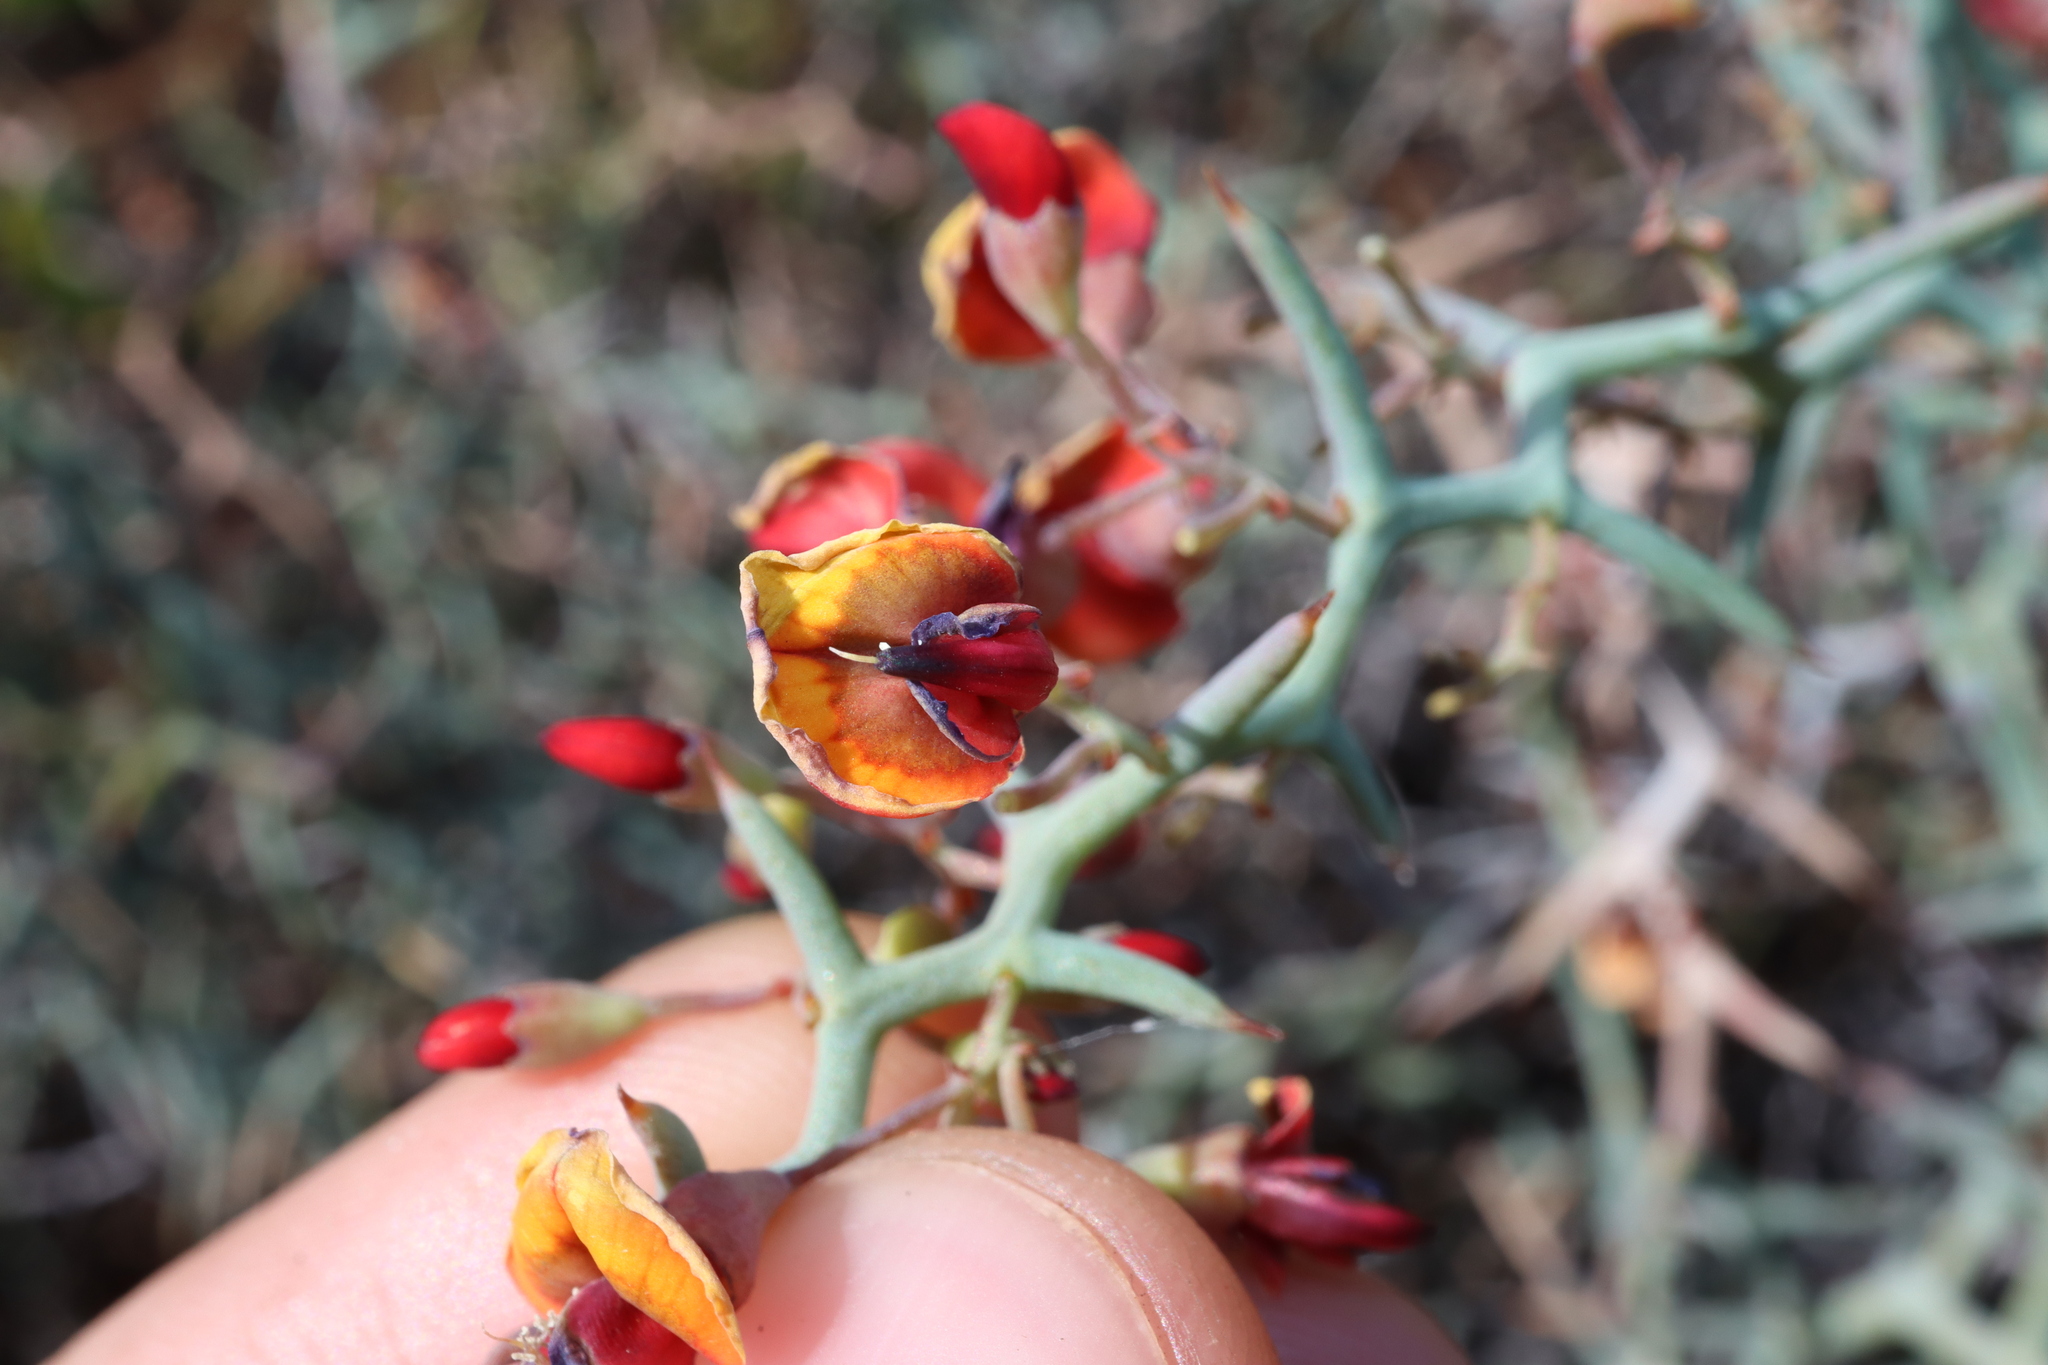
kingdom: Plantae
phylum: Tracheophyta
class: Magnoliopsida
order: Fabales
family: Fabaceae
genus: Daviesia
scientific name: Daviesia incrassata
